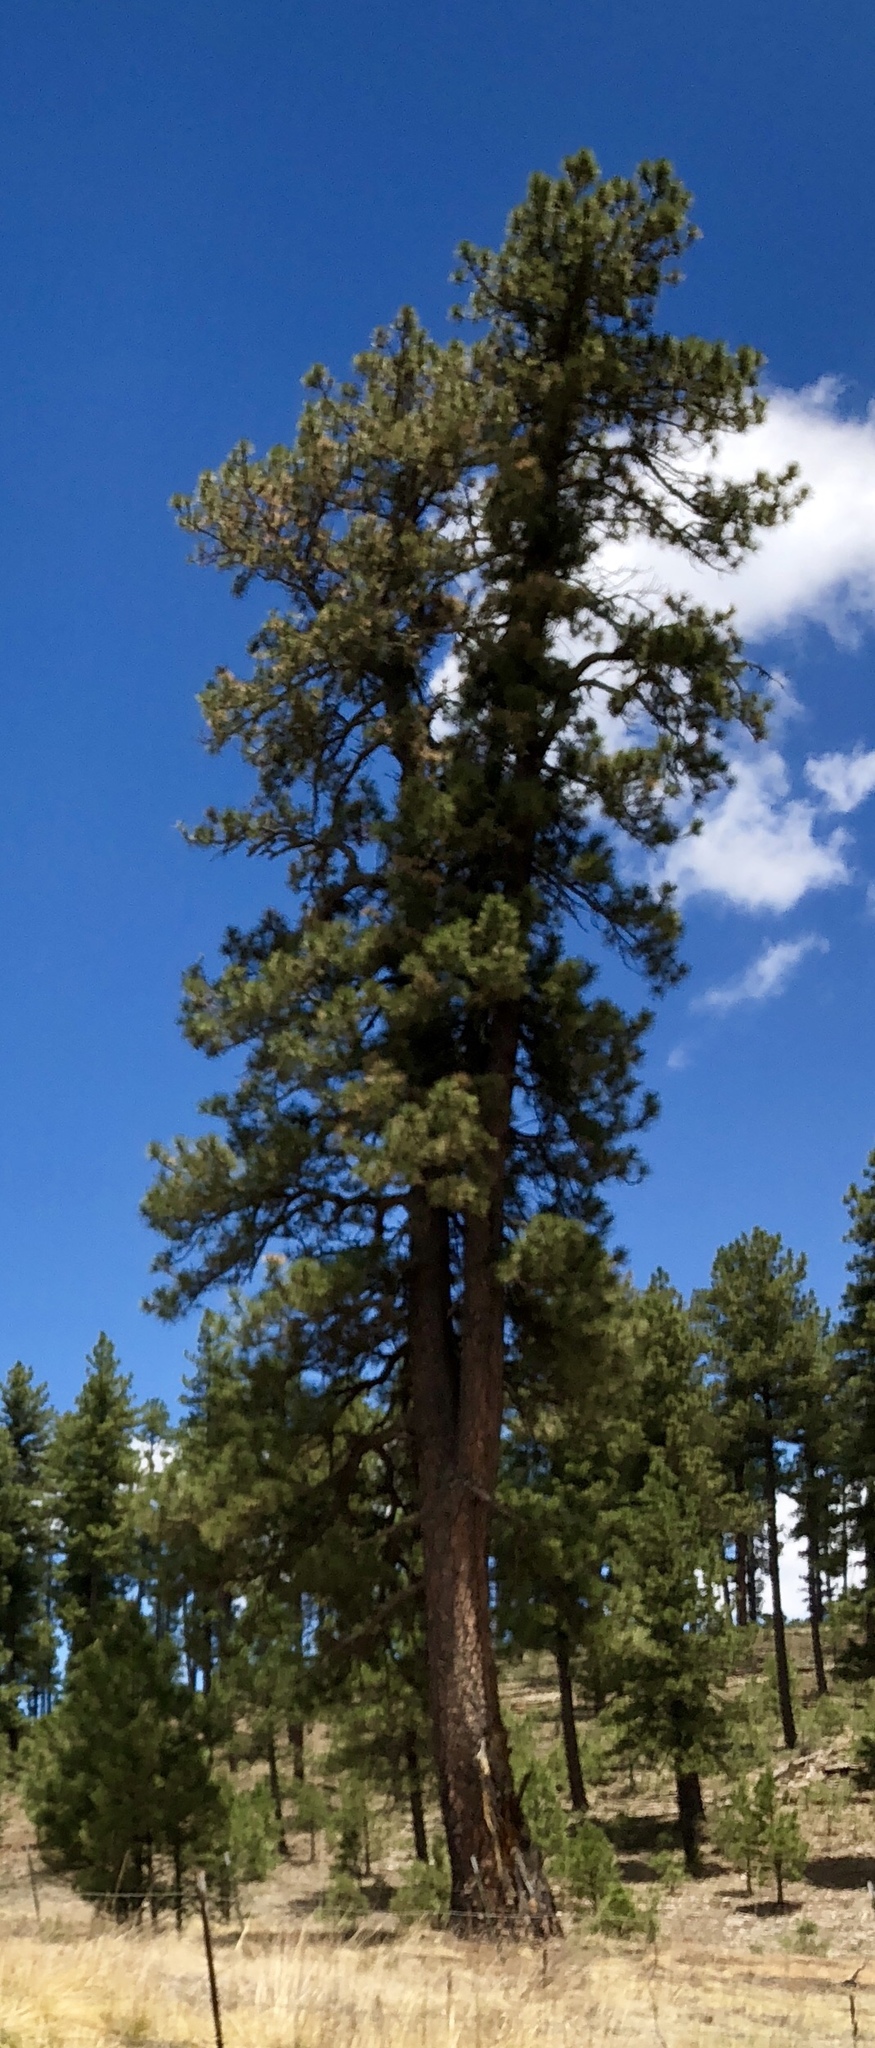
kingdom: Plantae
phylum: Tracheophyta
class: Pinopsida
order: Pinales
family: Pinaceae
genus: Pinus
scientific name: Pinus ponderosa
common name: Western yellow-pine
